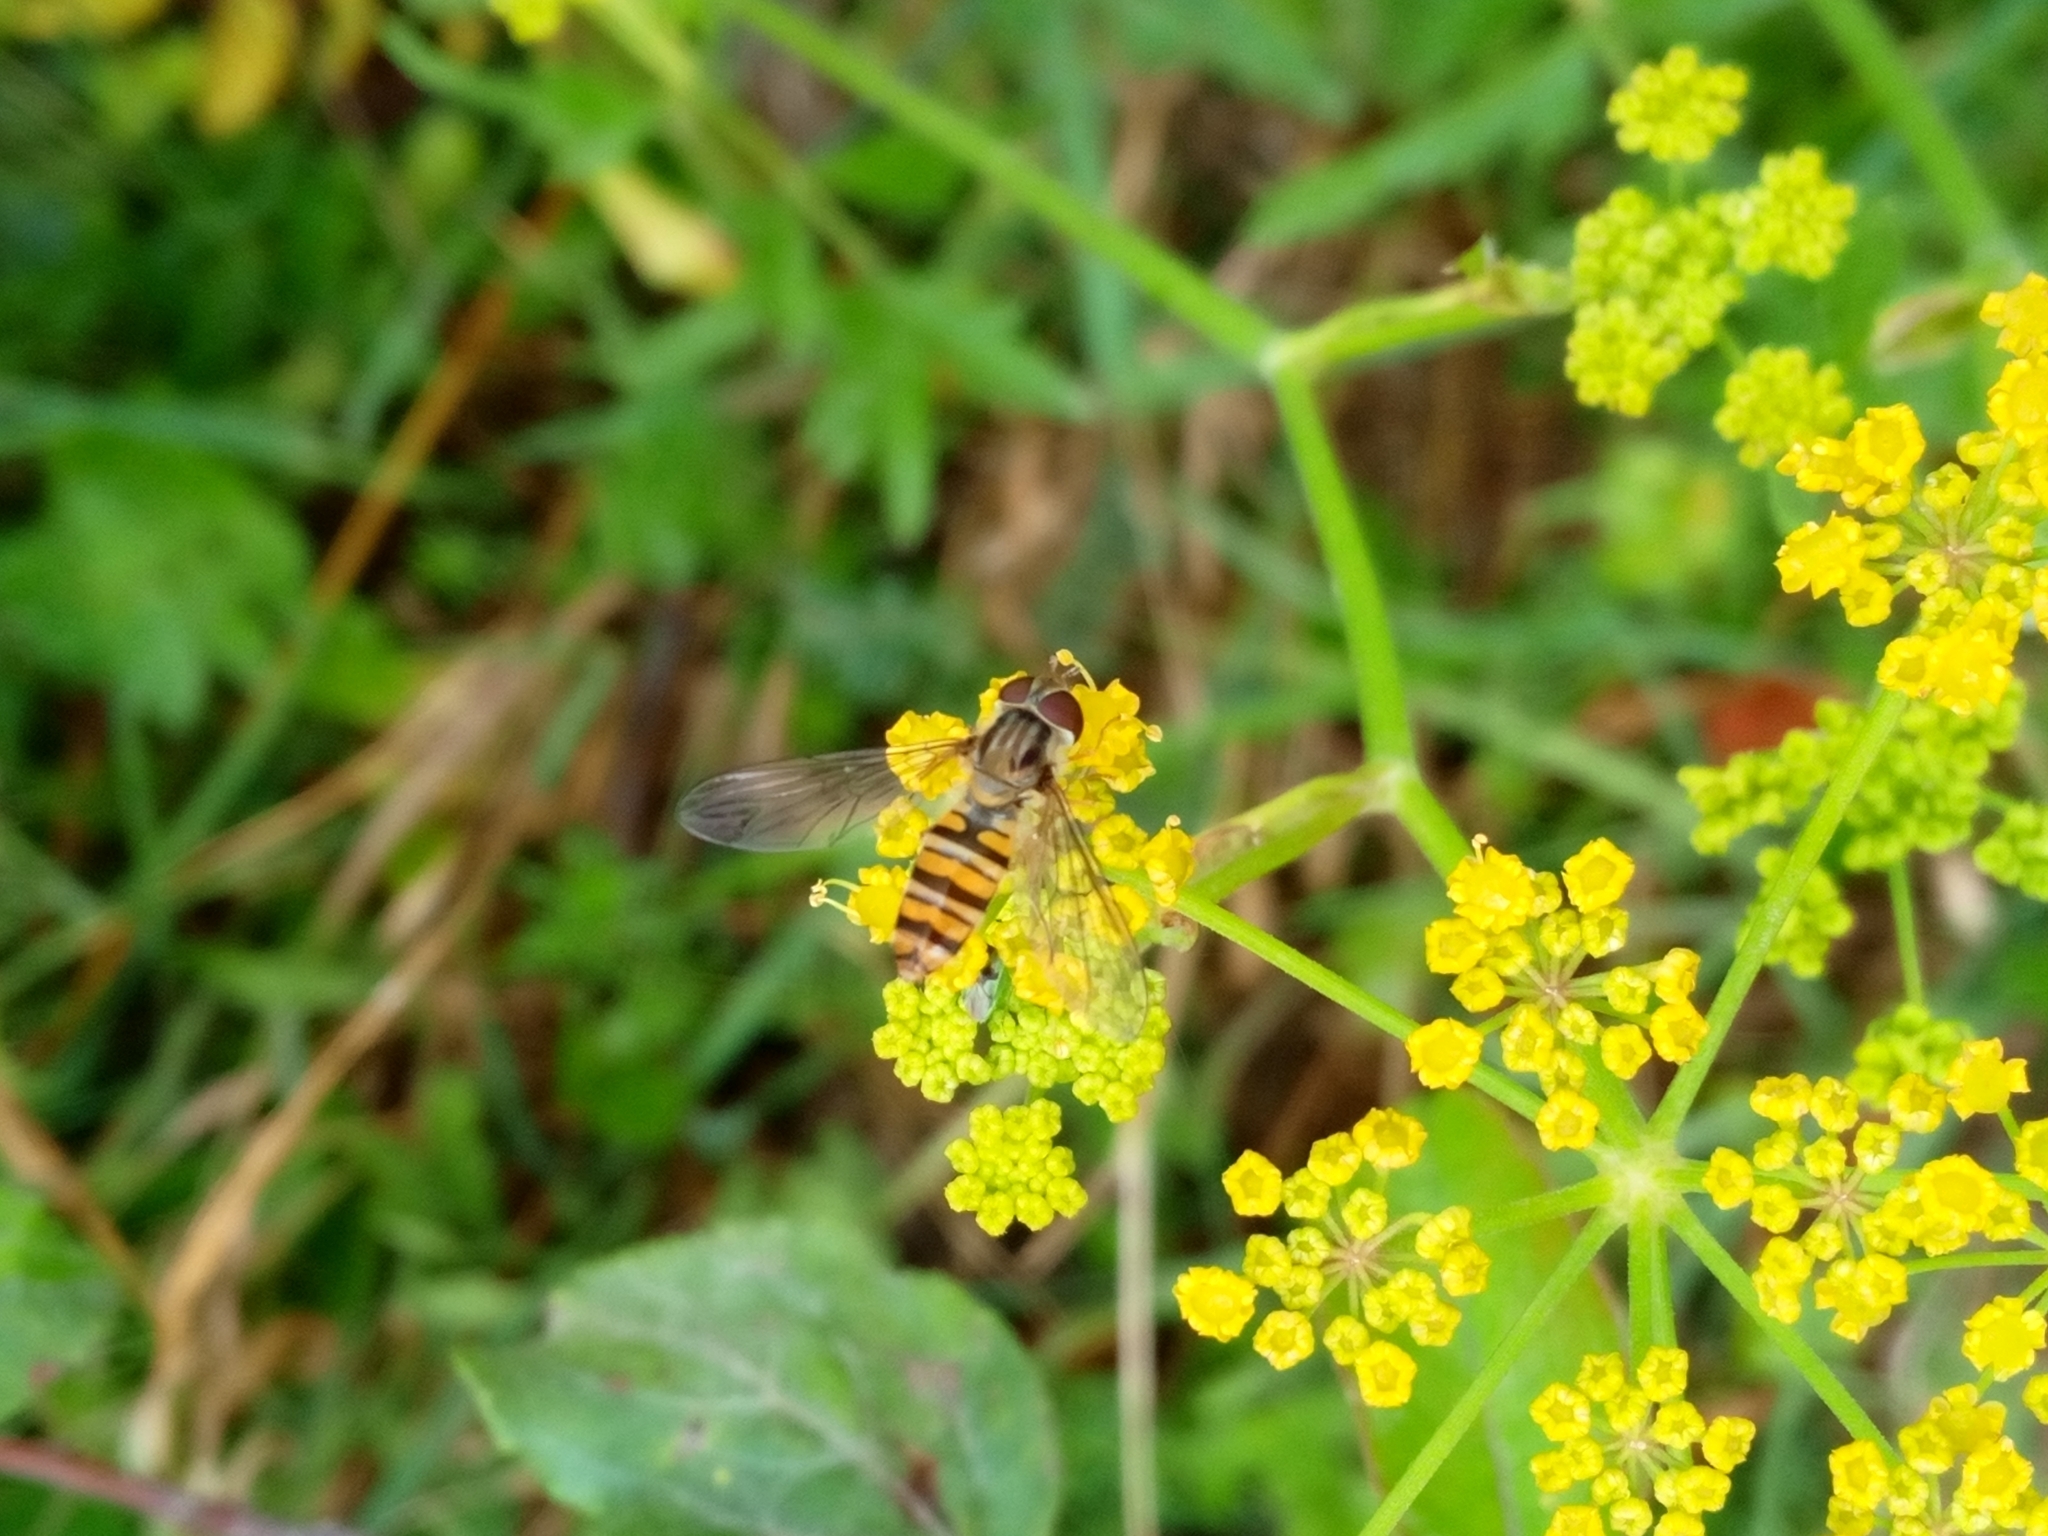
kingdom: Animalia
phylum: Arthropoda
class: Insecta
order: Diptera
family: Syrphidae
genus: Episyrphus
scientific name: Episyrphus balteatus
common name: Marmalade hoverfly
